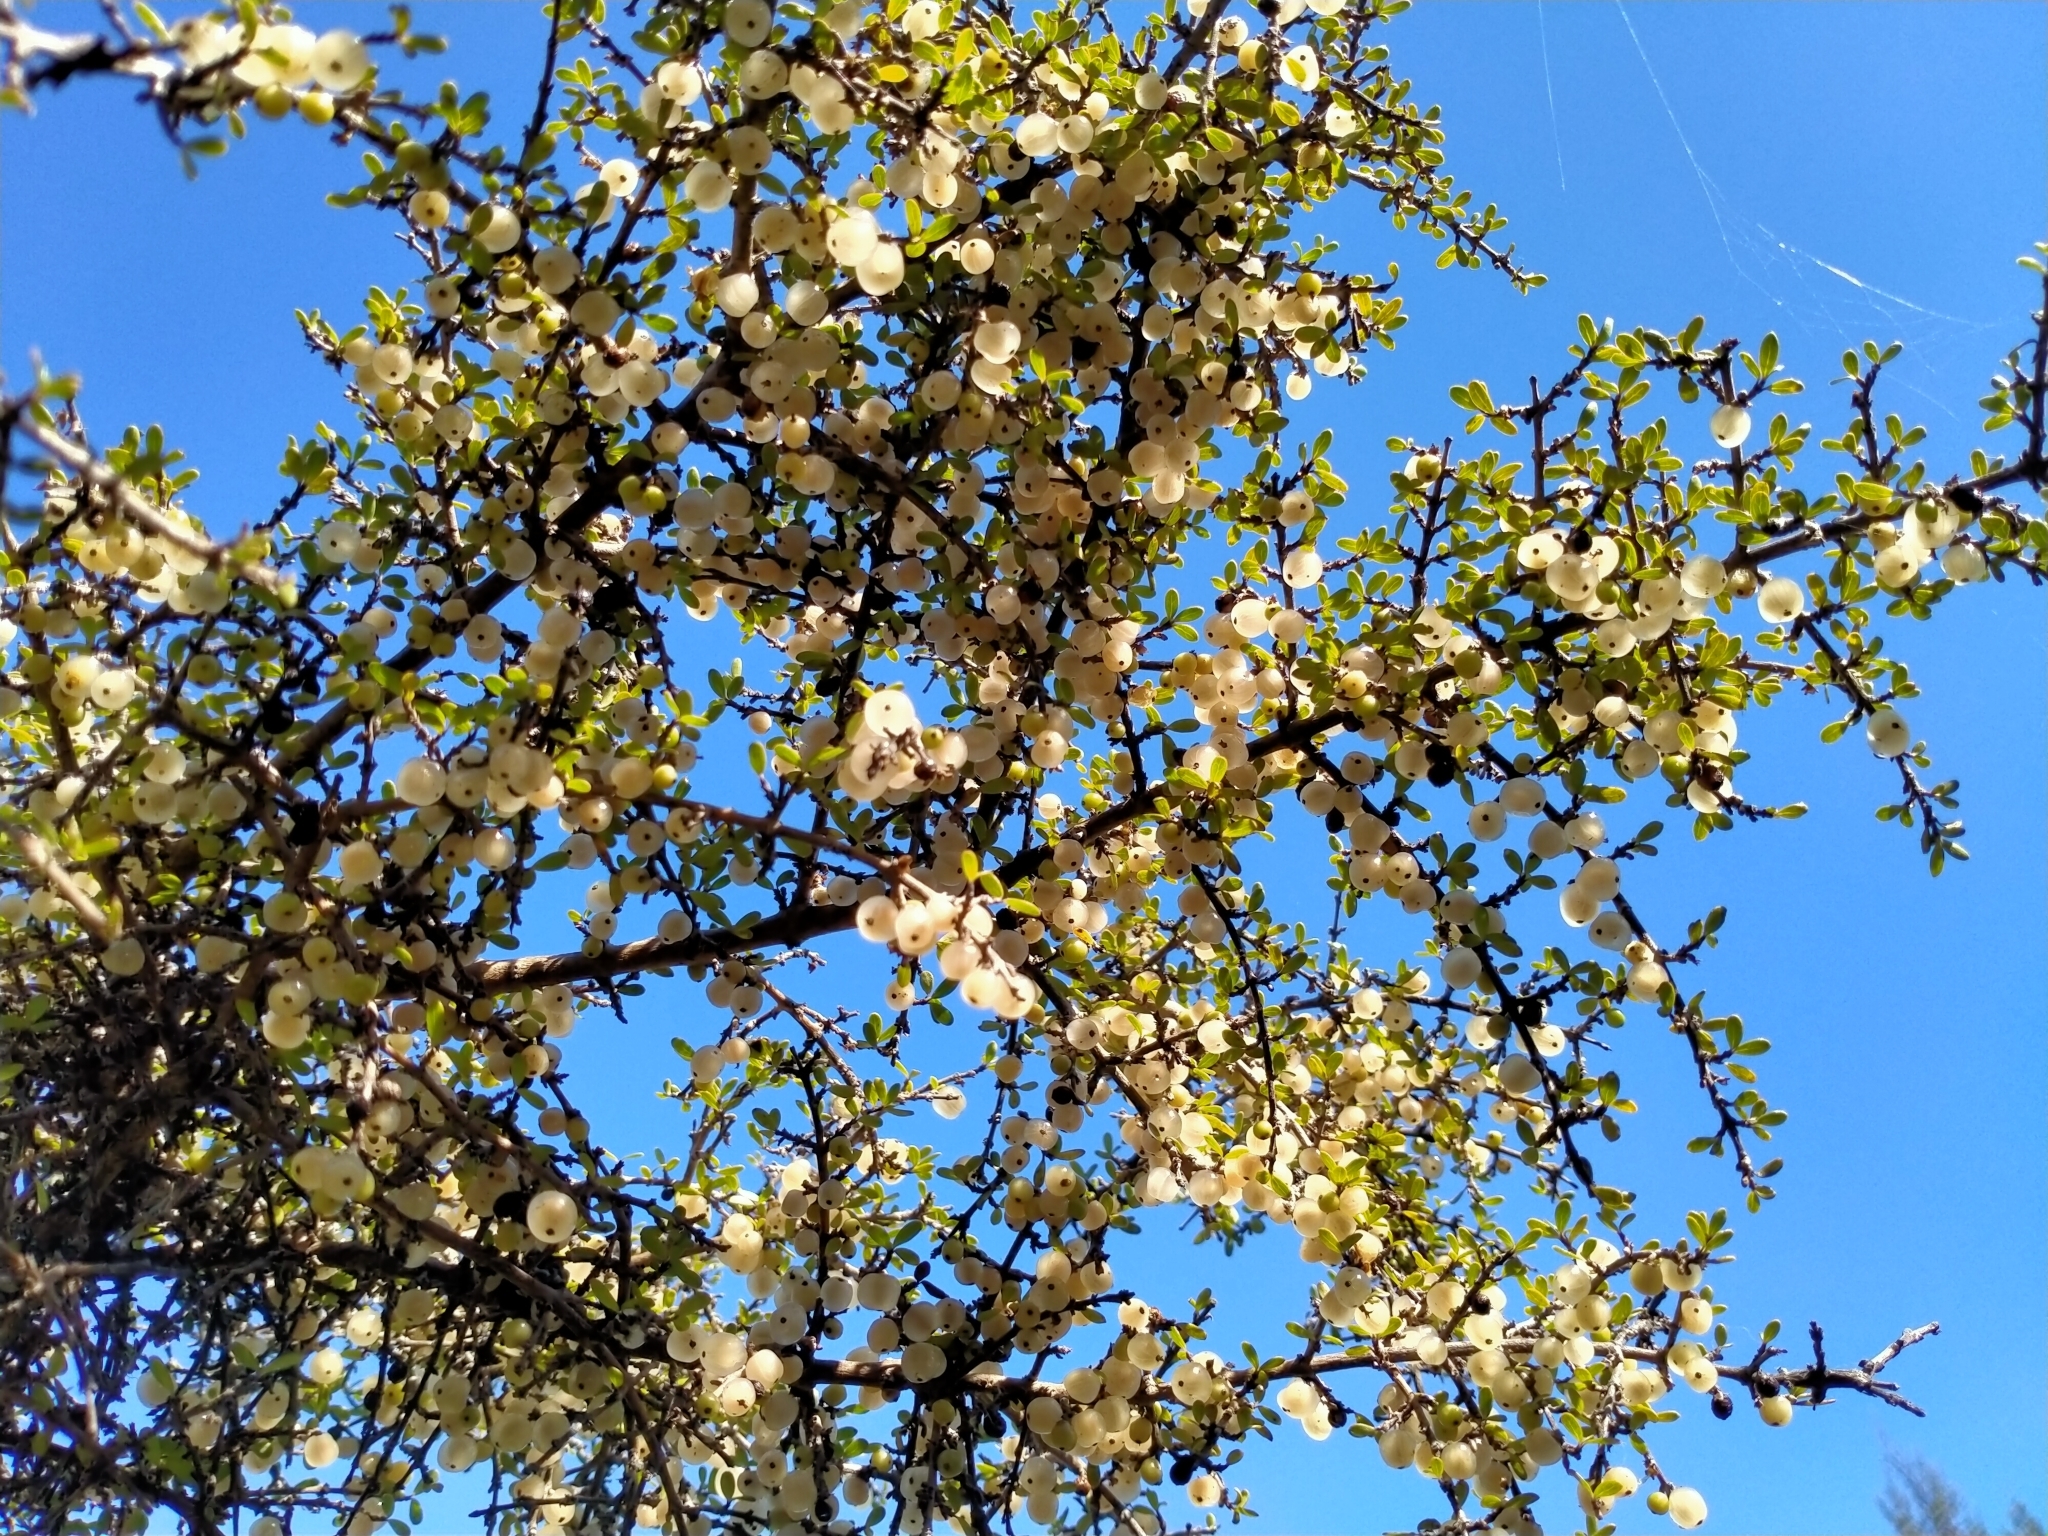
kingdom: Plantae
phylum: Tracheophyta
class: Magnoliopsida
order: Gentianales
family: Rubiaceae
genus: Coprosma
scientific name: Coprosma dumosa
